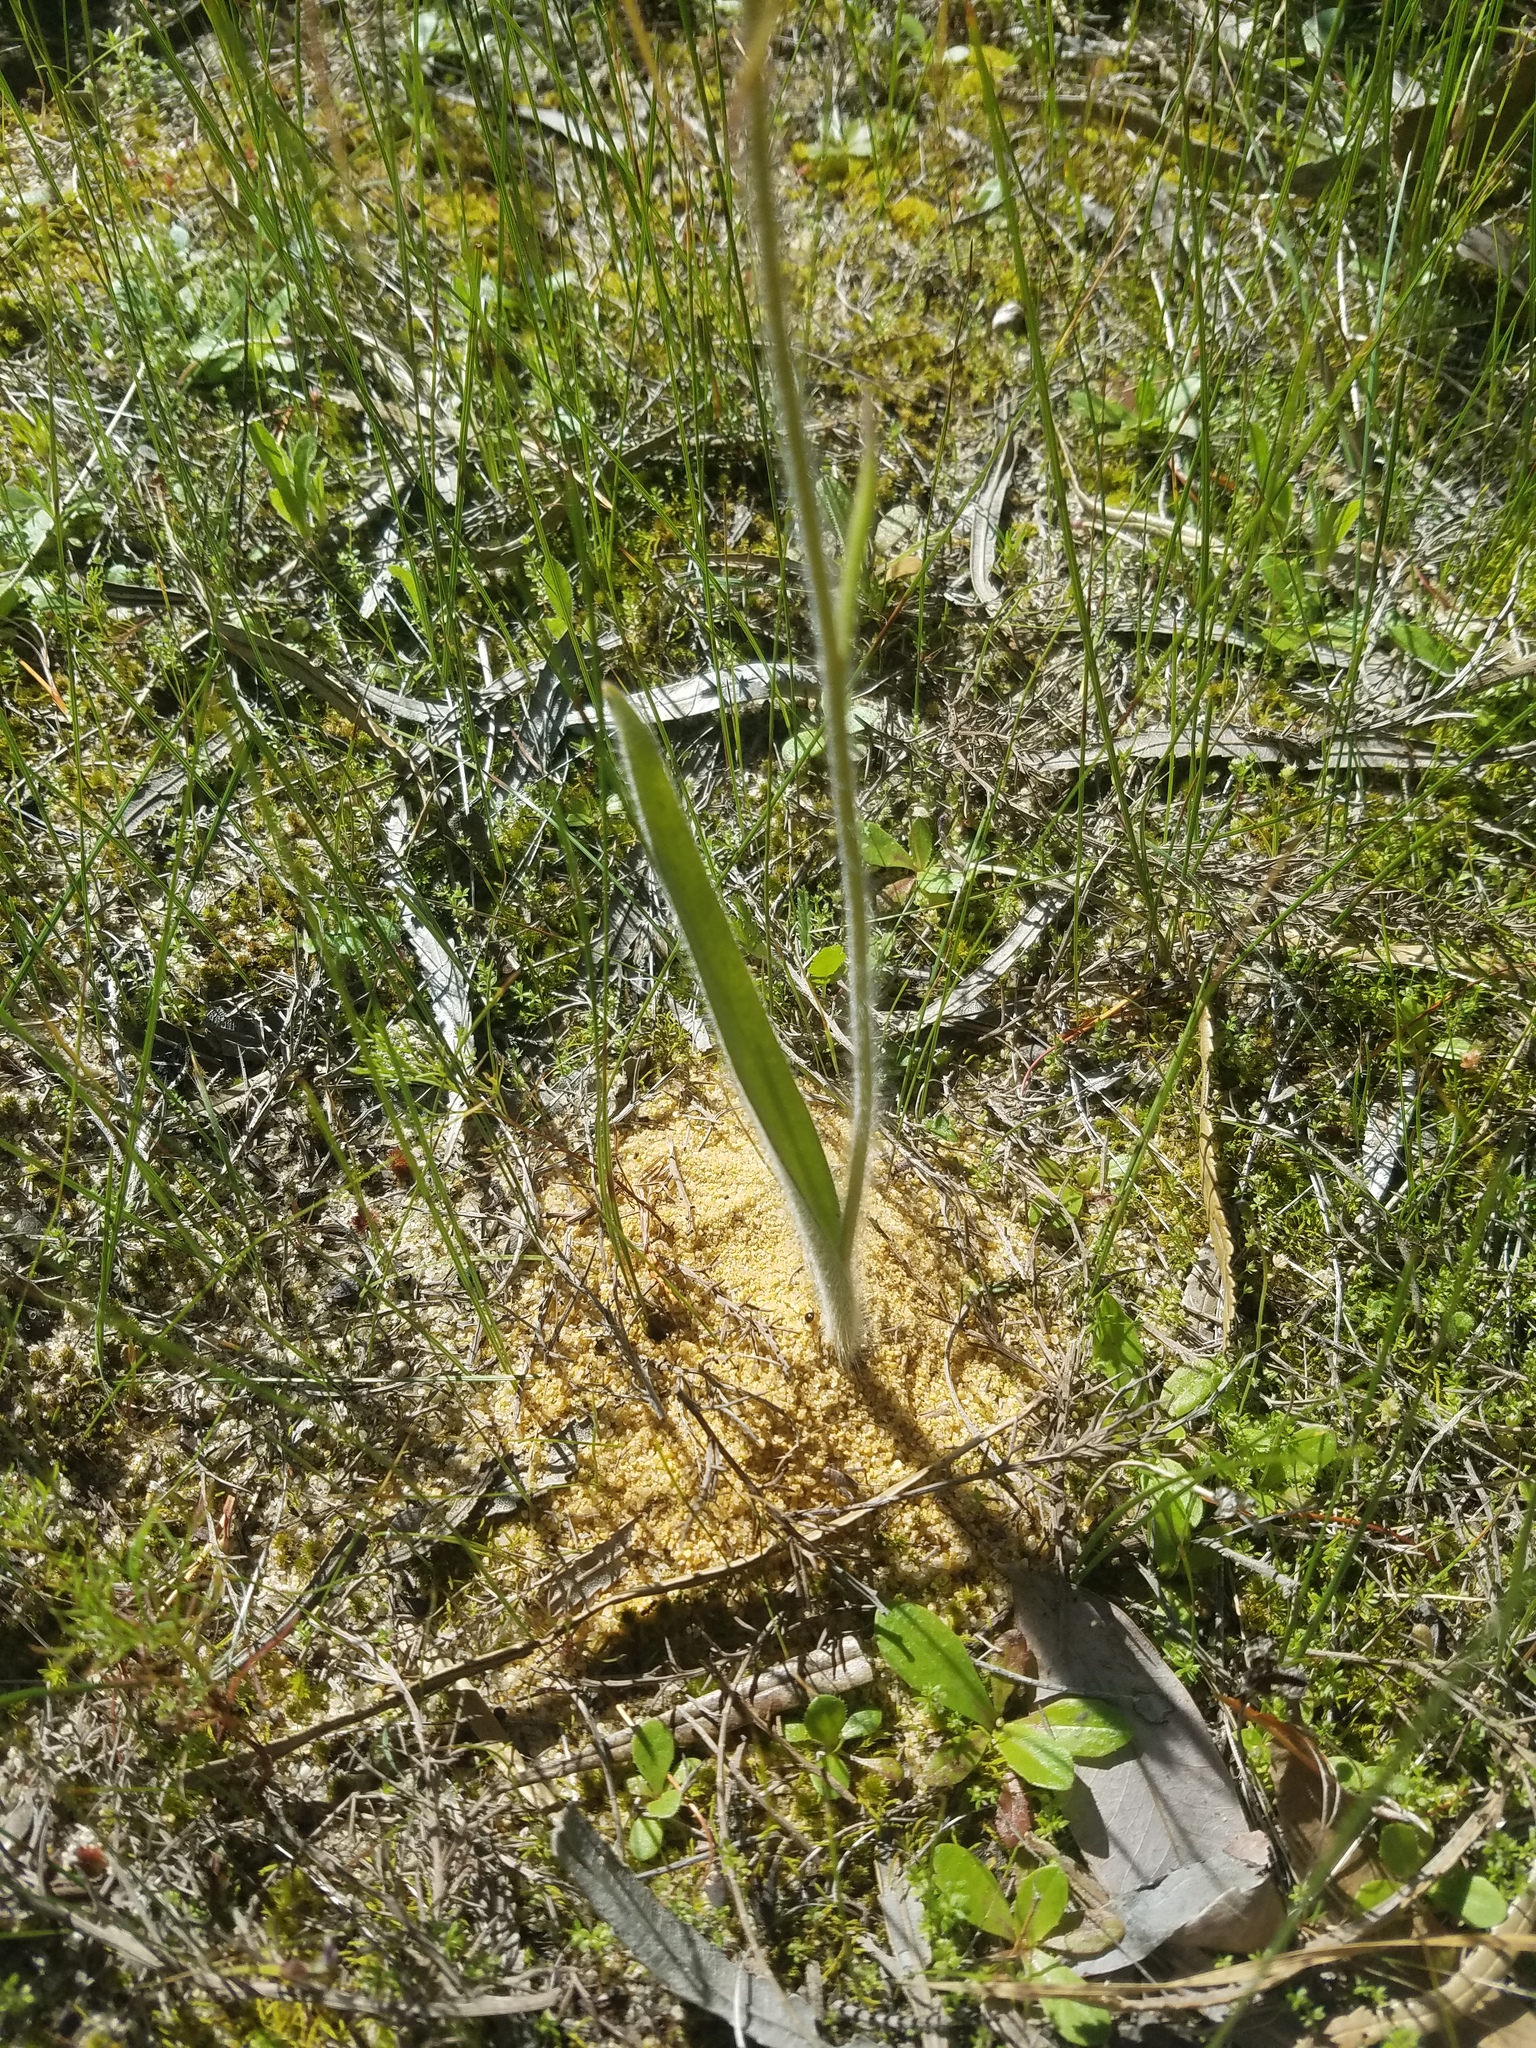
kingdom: Plantae
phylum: Tracheophyta
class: Liliopsida
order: Asparagales
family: Orchidaceae
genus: Caladenia
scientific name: Caladenia longicauda
